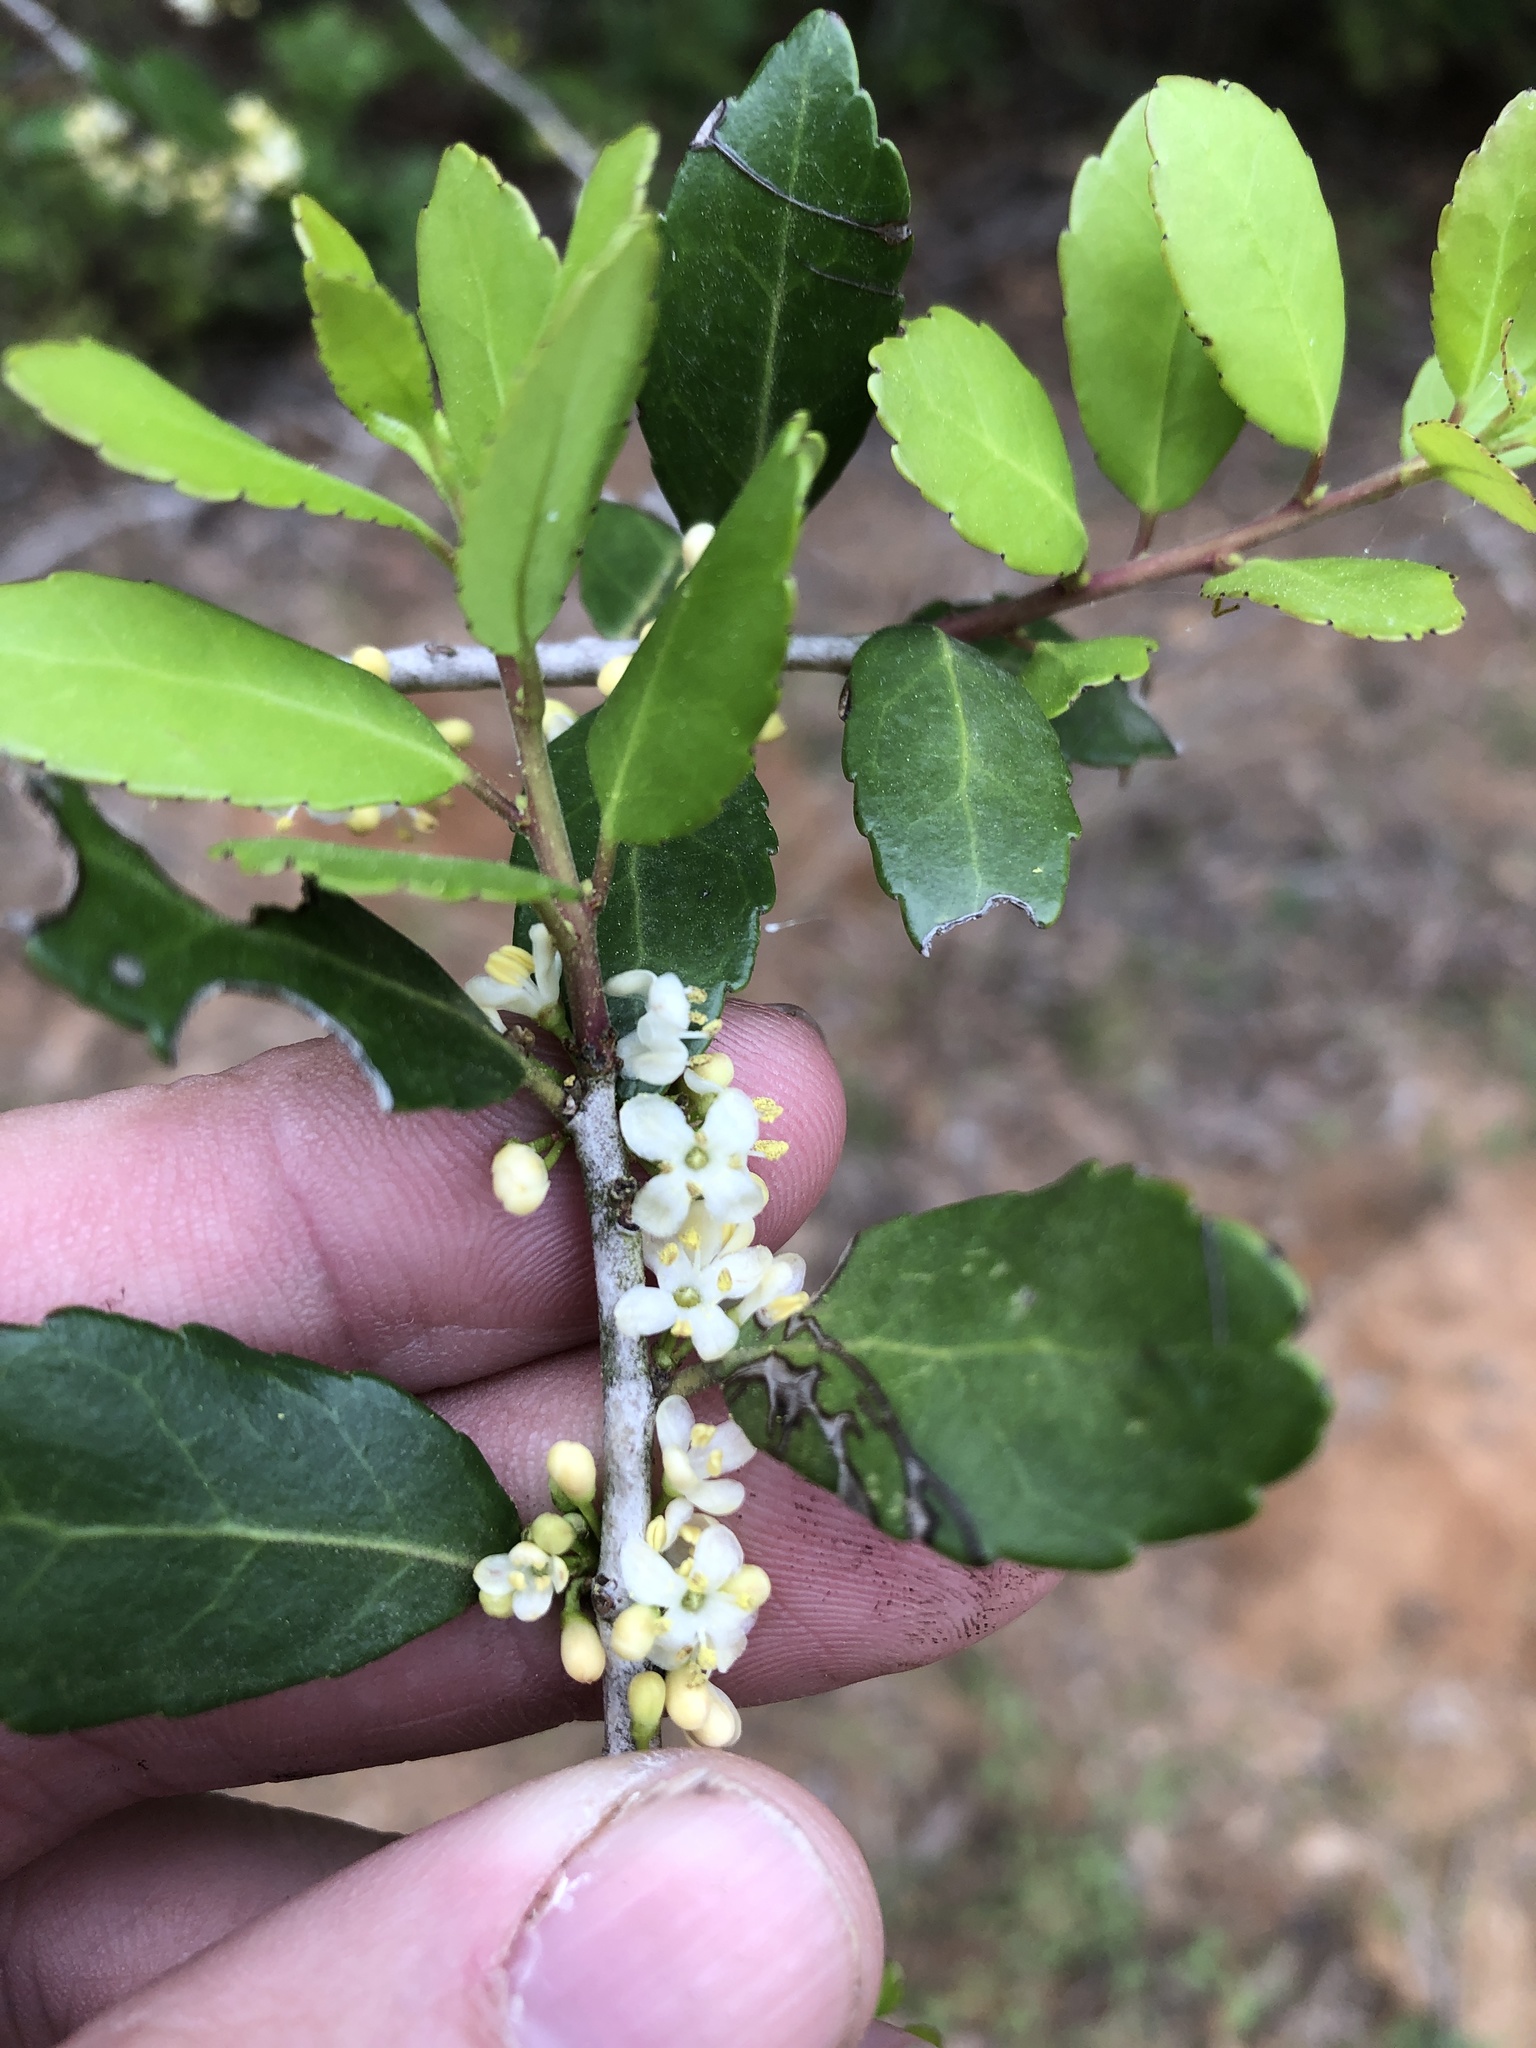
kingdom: Plantae
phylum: Tracheophyta
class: Magnoliopsida
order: Aquifoliales
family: Aquifoliaceae
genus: Ilex
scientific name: Ilex vomitoria
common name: Yaupon holly
